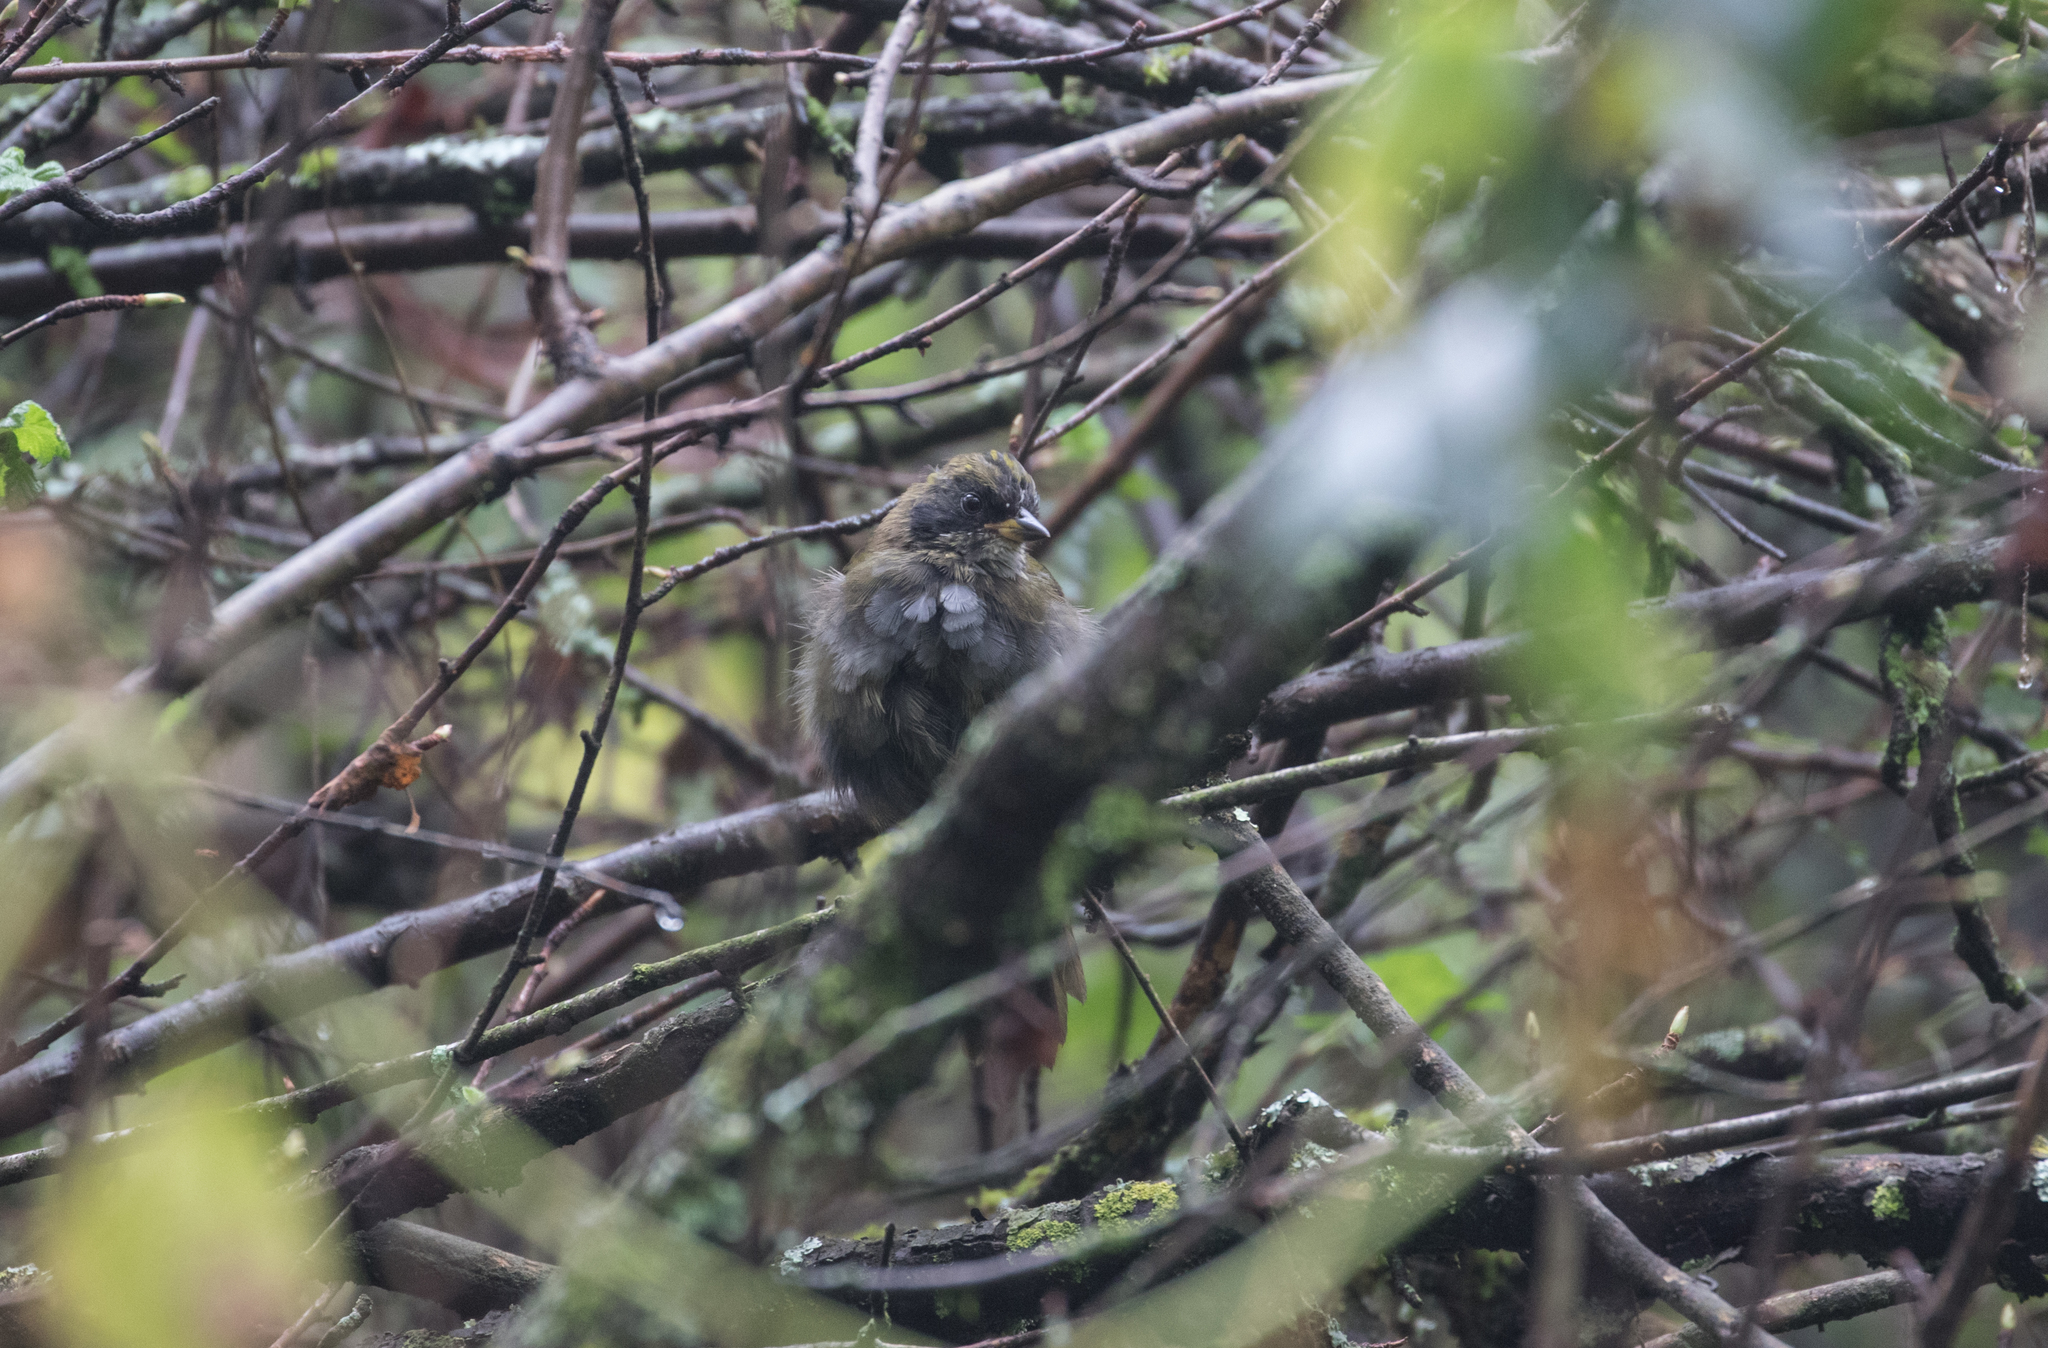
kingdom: Animalia
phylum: Chordata
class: Aves
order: Passeriformes
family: Passerellidae
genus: Arremon
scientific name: Arremon virenticeps
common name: Green-striped brushfinch
